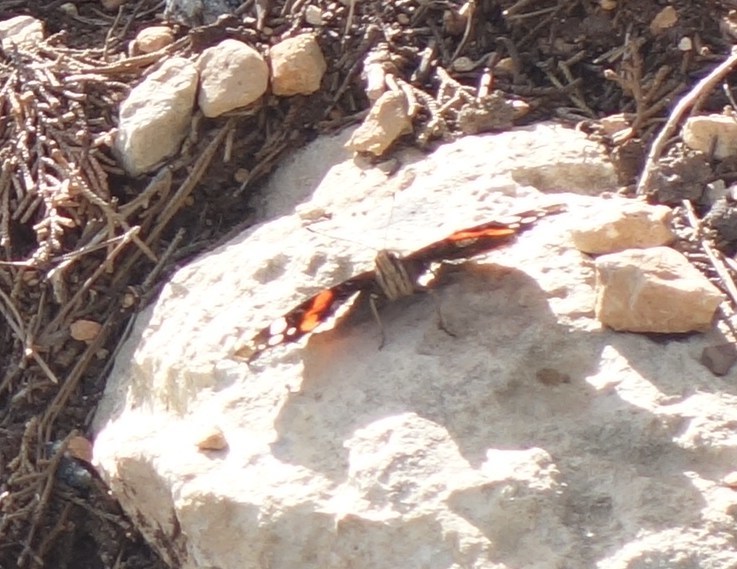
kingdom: Animalia
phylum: Arthropoda
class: Insecta
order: Lepidoptera
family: Nymphalidae
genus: Vanessa
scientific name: Vanessa atalanta
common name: Red admiral
